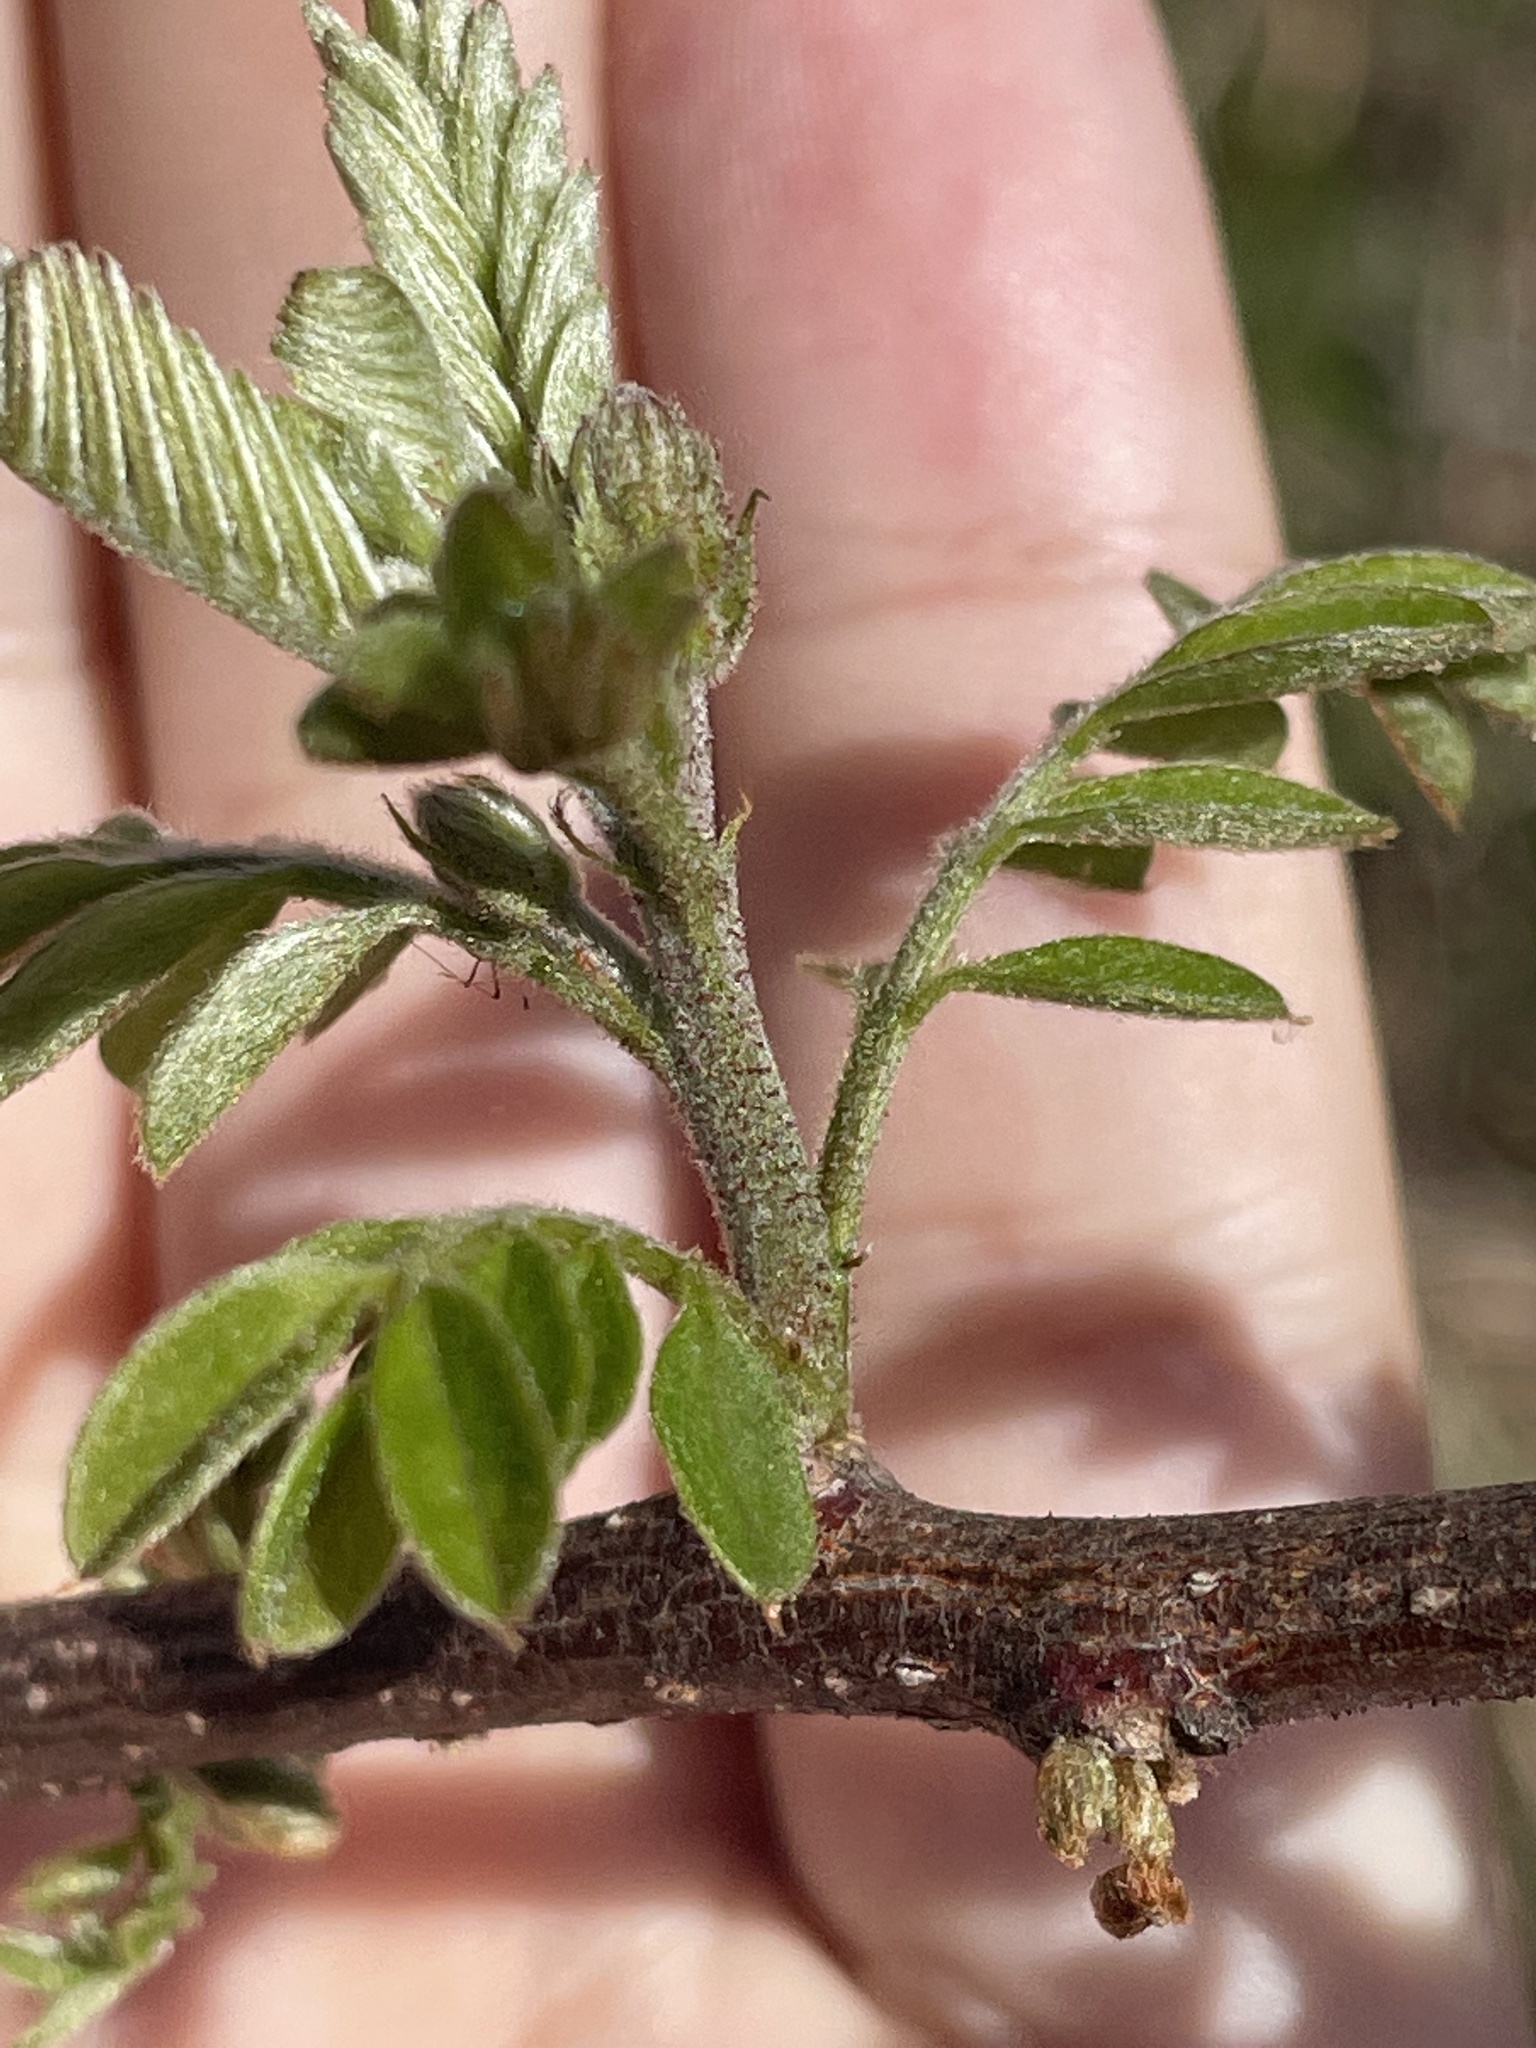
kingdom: Plantae
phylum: Tracheophyta
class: Magnoliopsida
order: Fabales
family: Fabaceae
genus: Robinia
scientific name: Robinia viscosa
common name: Clammy locust
